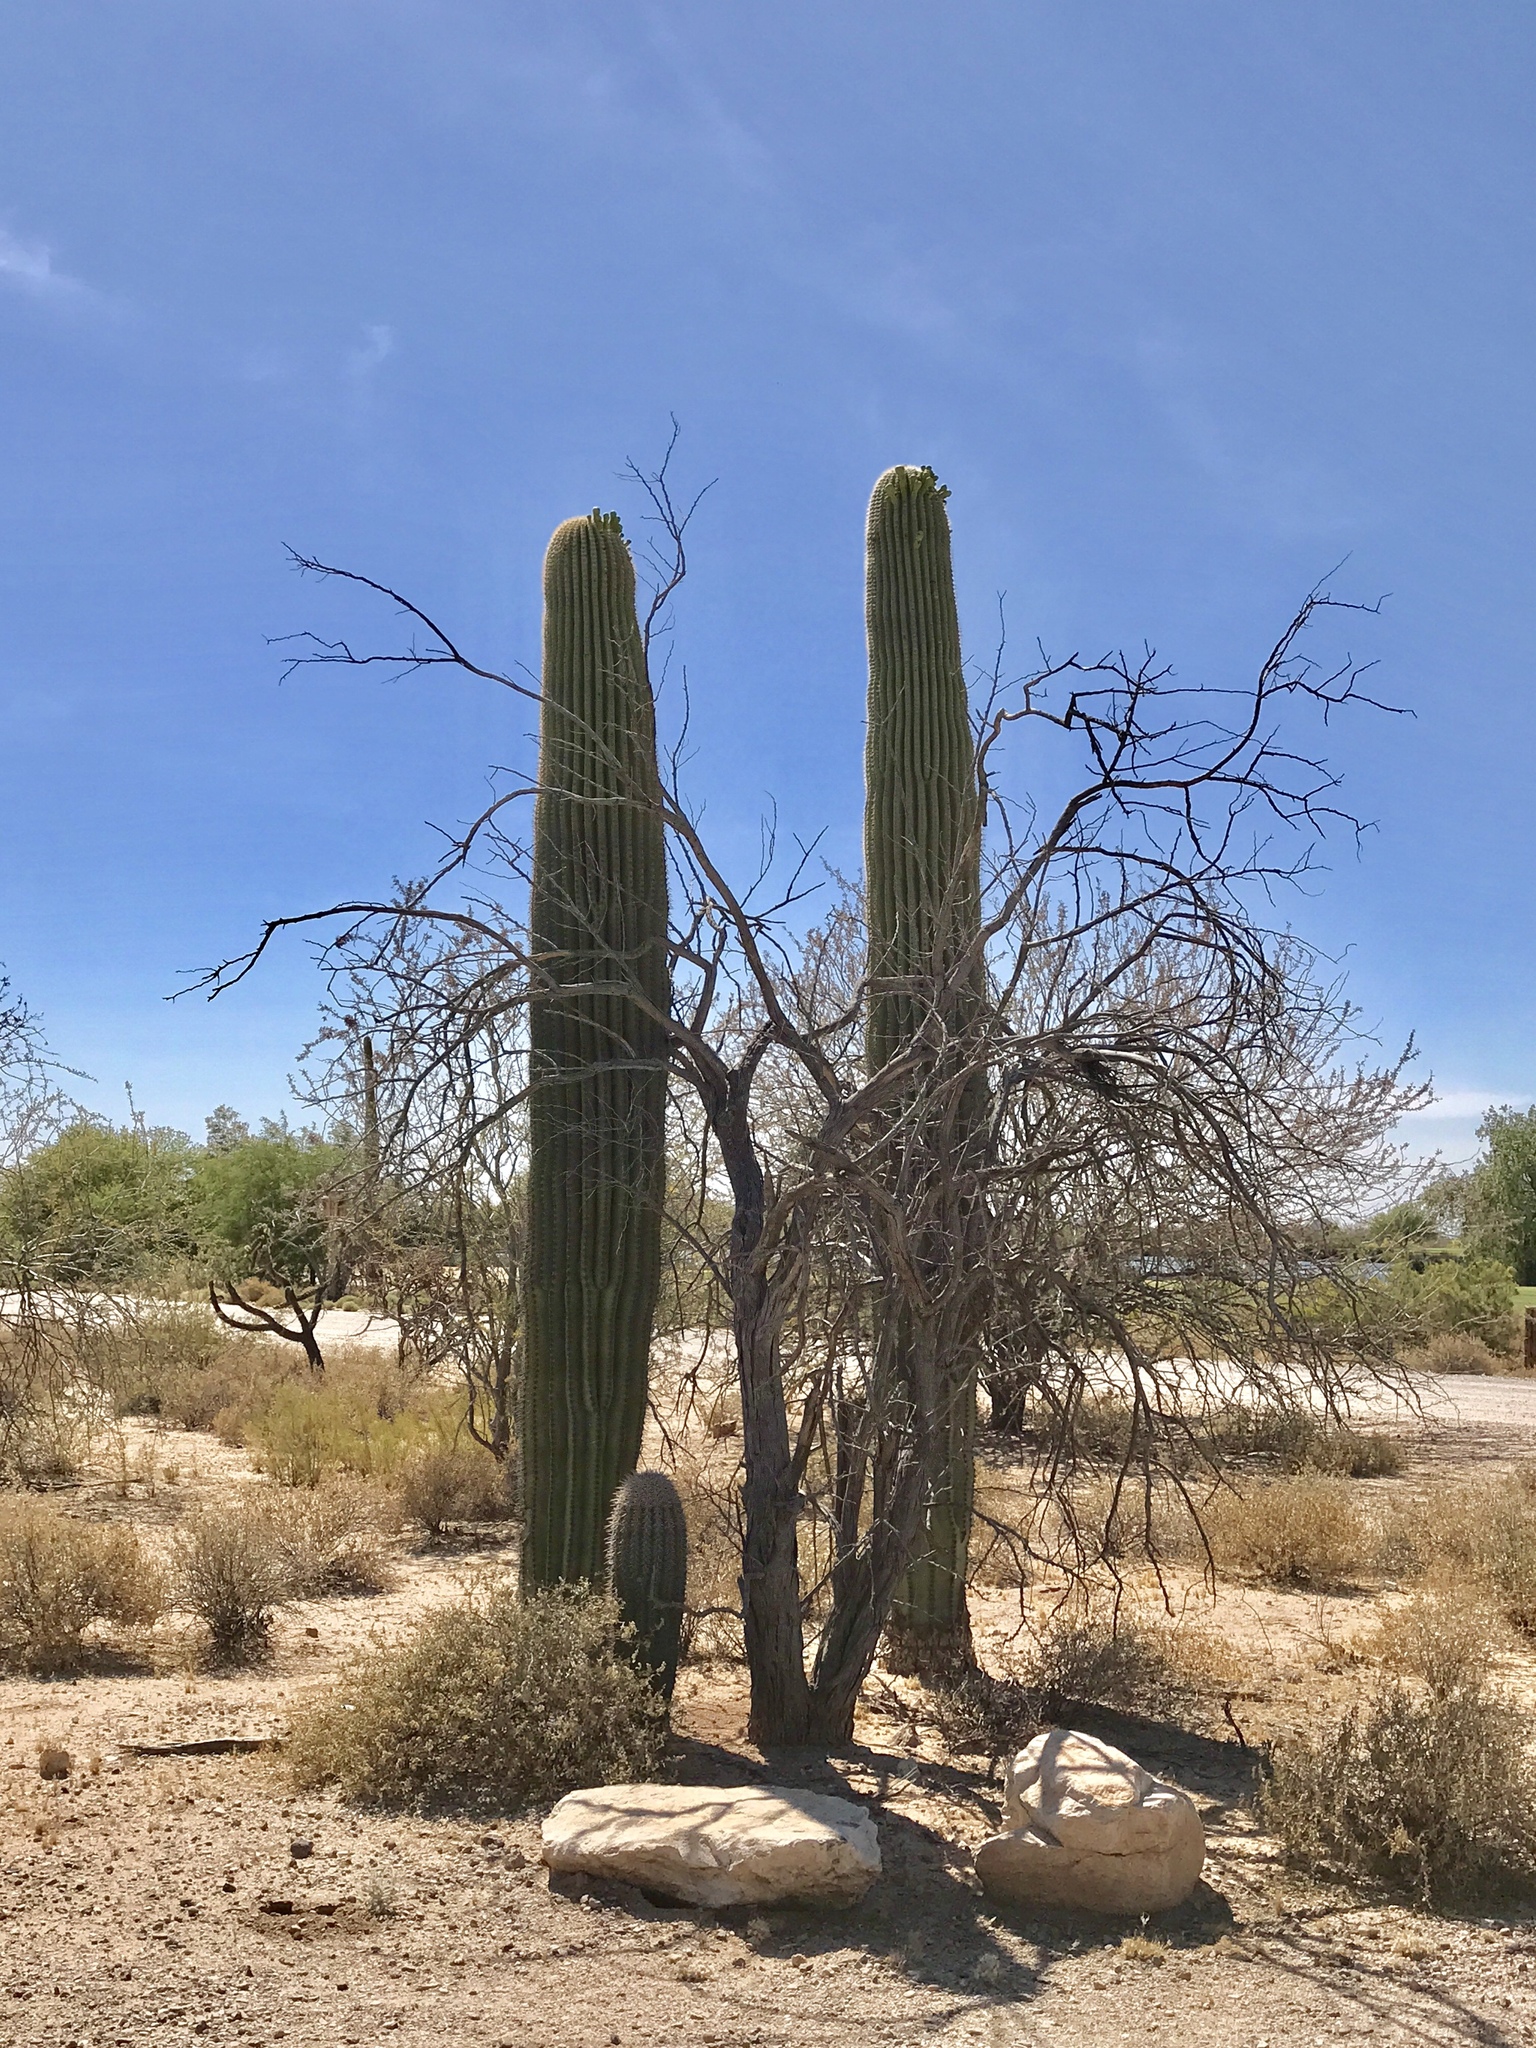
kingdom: Plantae
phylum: Tracheophyta
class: Magnoliopsida
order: Caryophyllales
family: Cactaceae
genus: Carnegiea
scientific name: Carnegiea gigantea
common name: Saguaro
